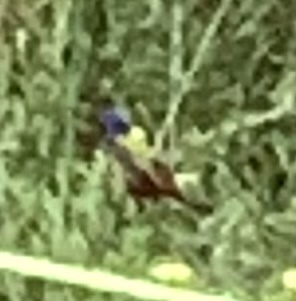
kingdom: Animalia
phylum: Chordata
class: Aves
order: Passeriformes
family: Cardinalidae
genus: Passerina
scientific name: Passerina ciris
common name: Painted bunting
